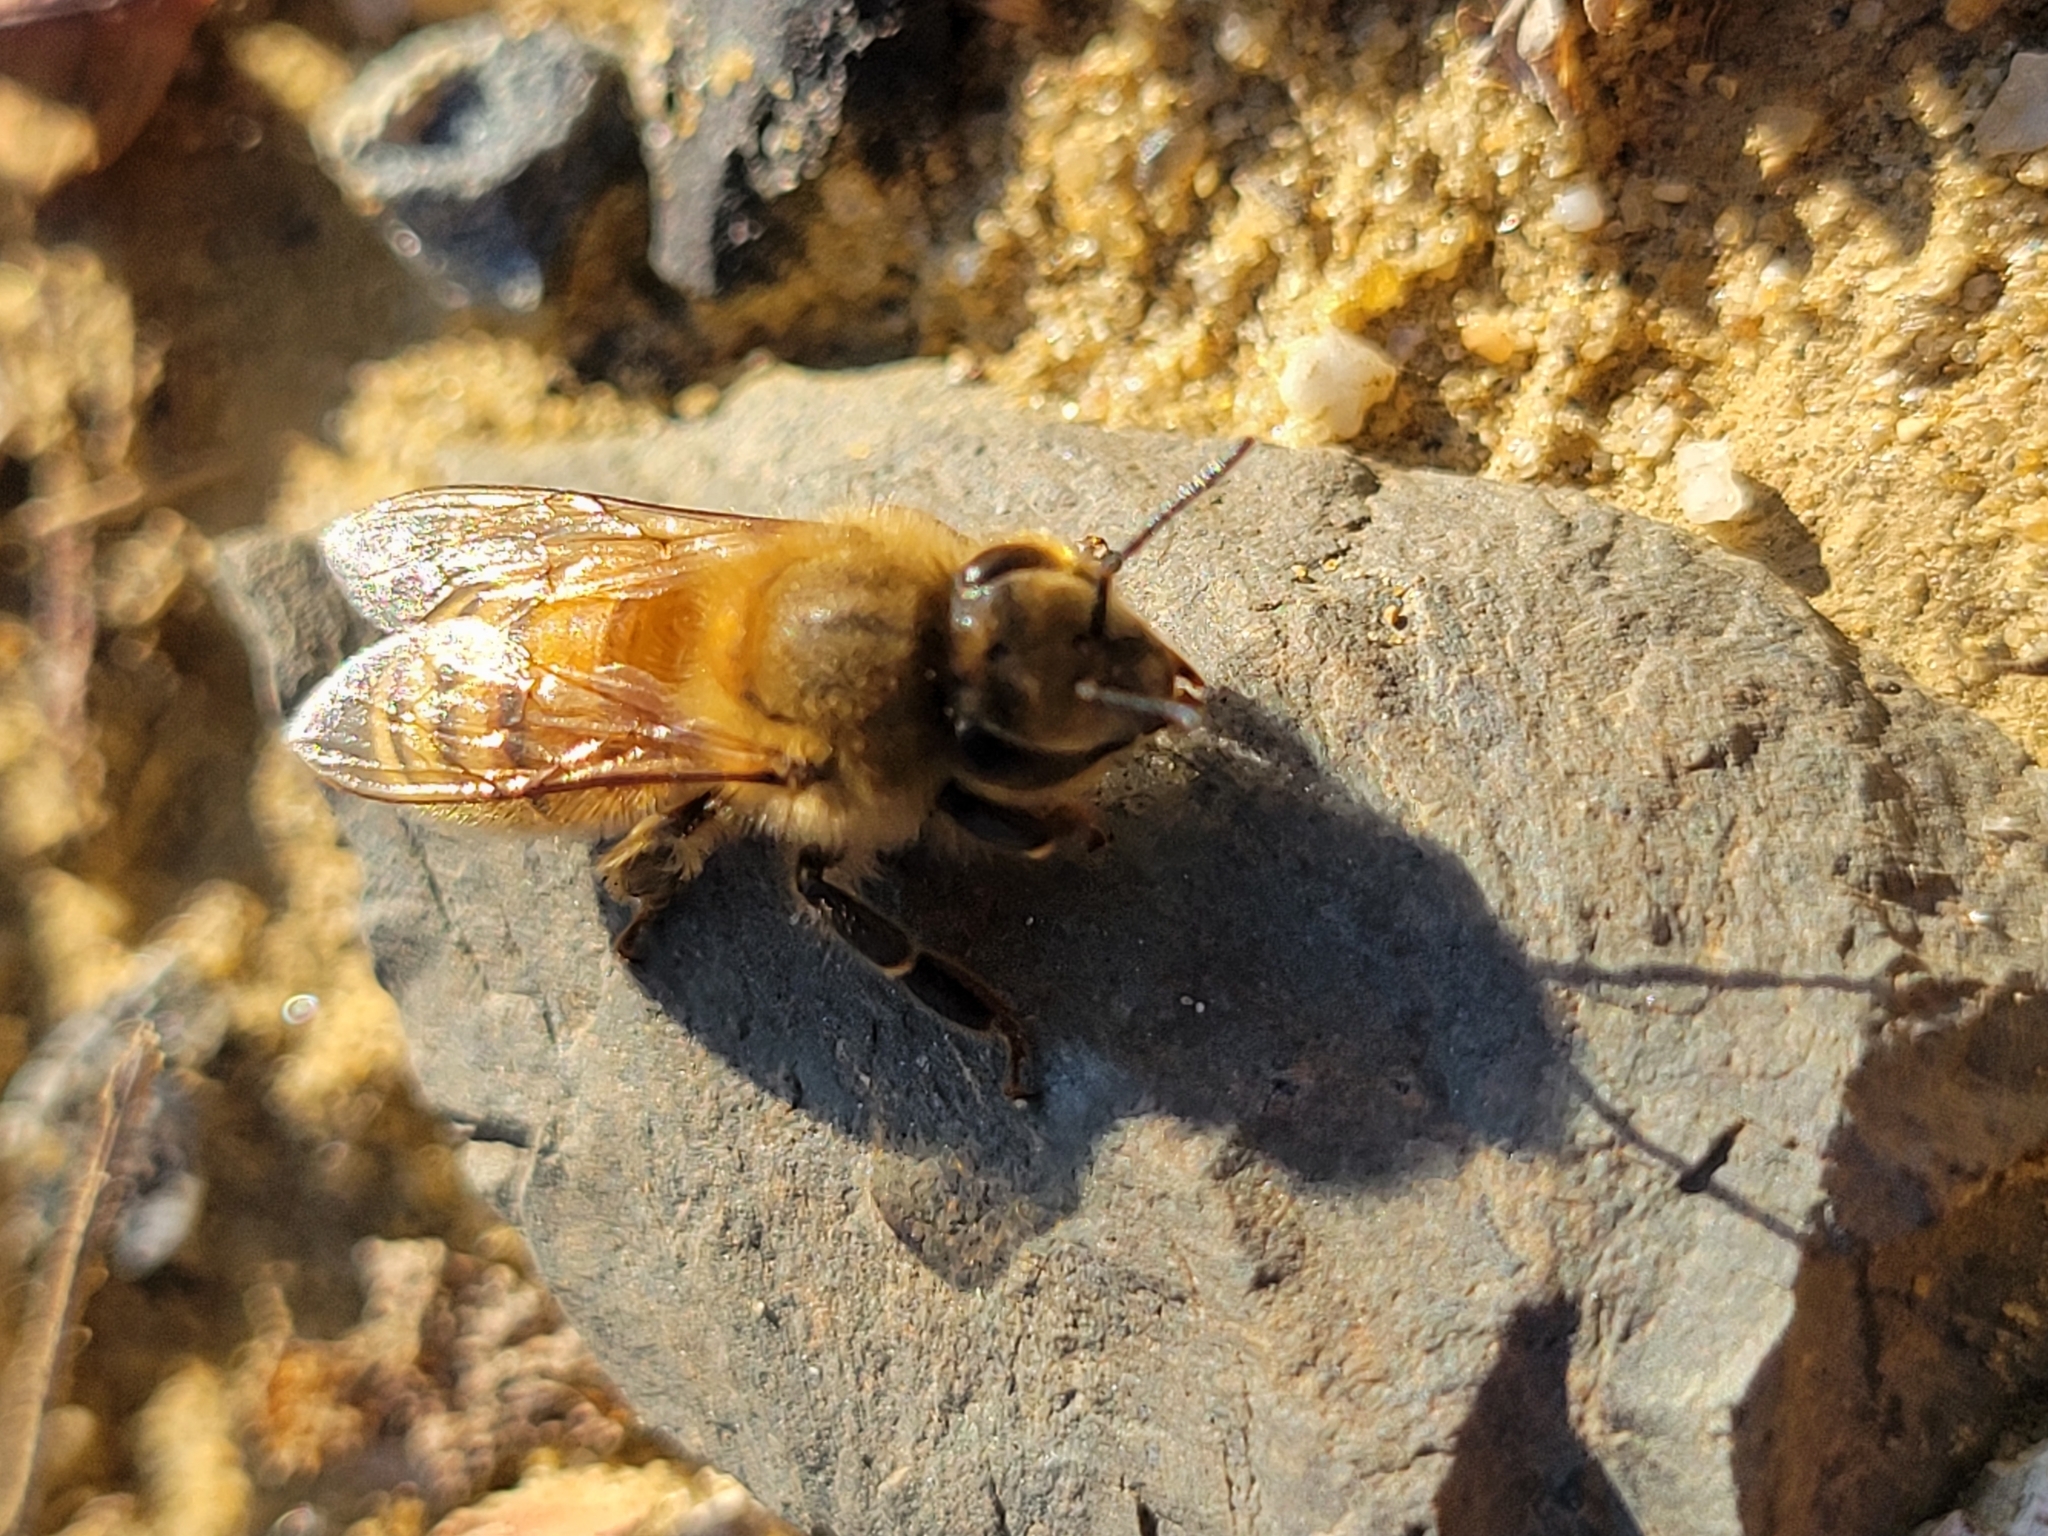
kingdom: Animalia
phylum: Arthropoda
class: Insecta
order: Hymenoptera
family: Apidae
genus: Apis
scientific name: Apis mellifera
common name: Honey bee
